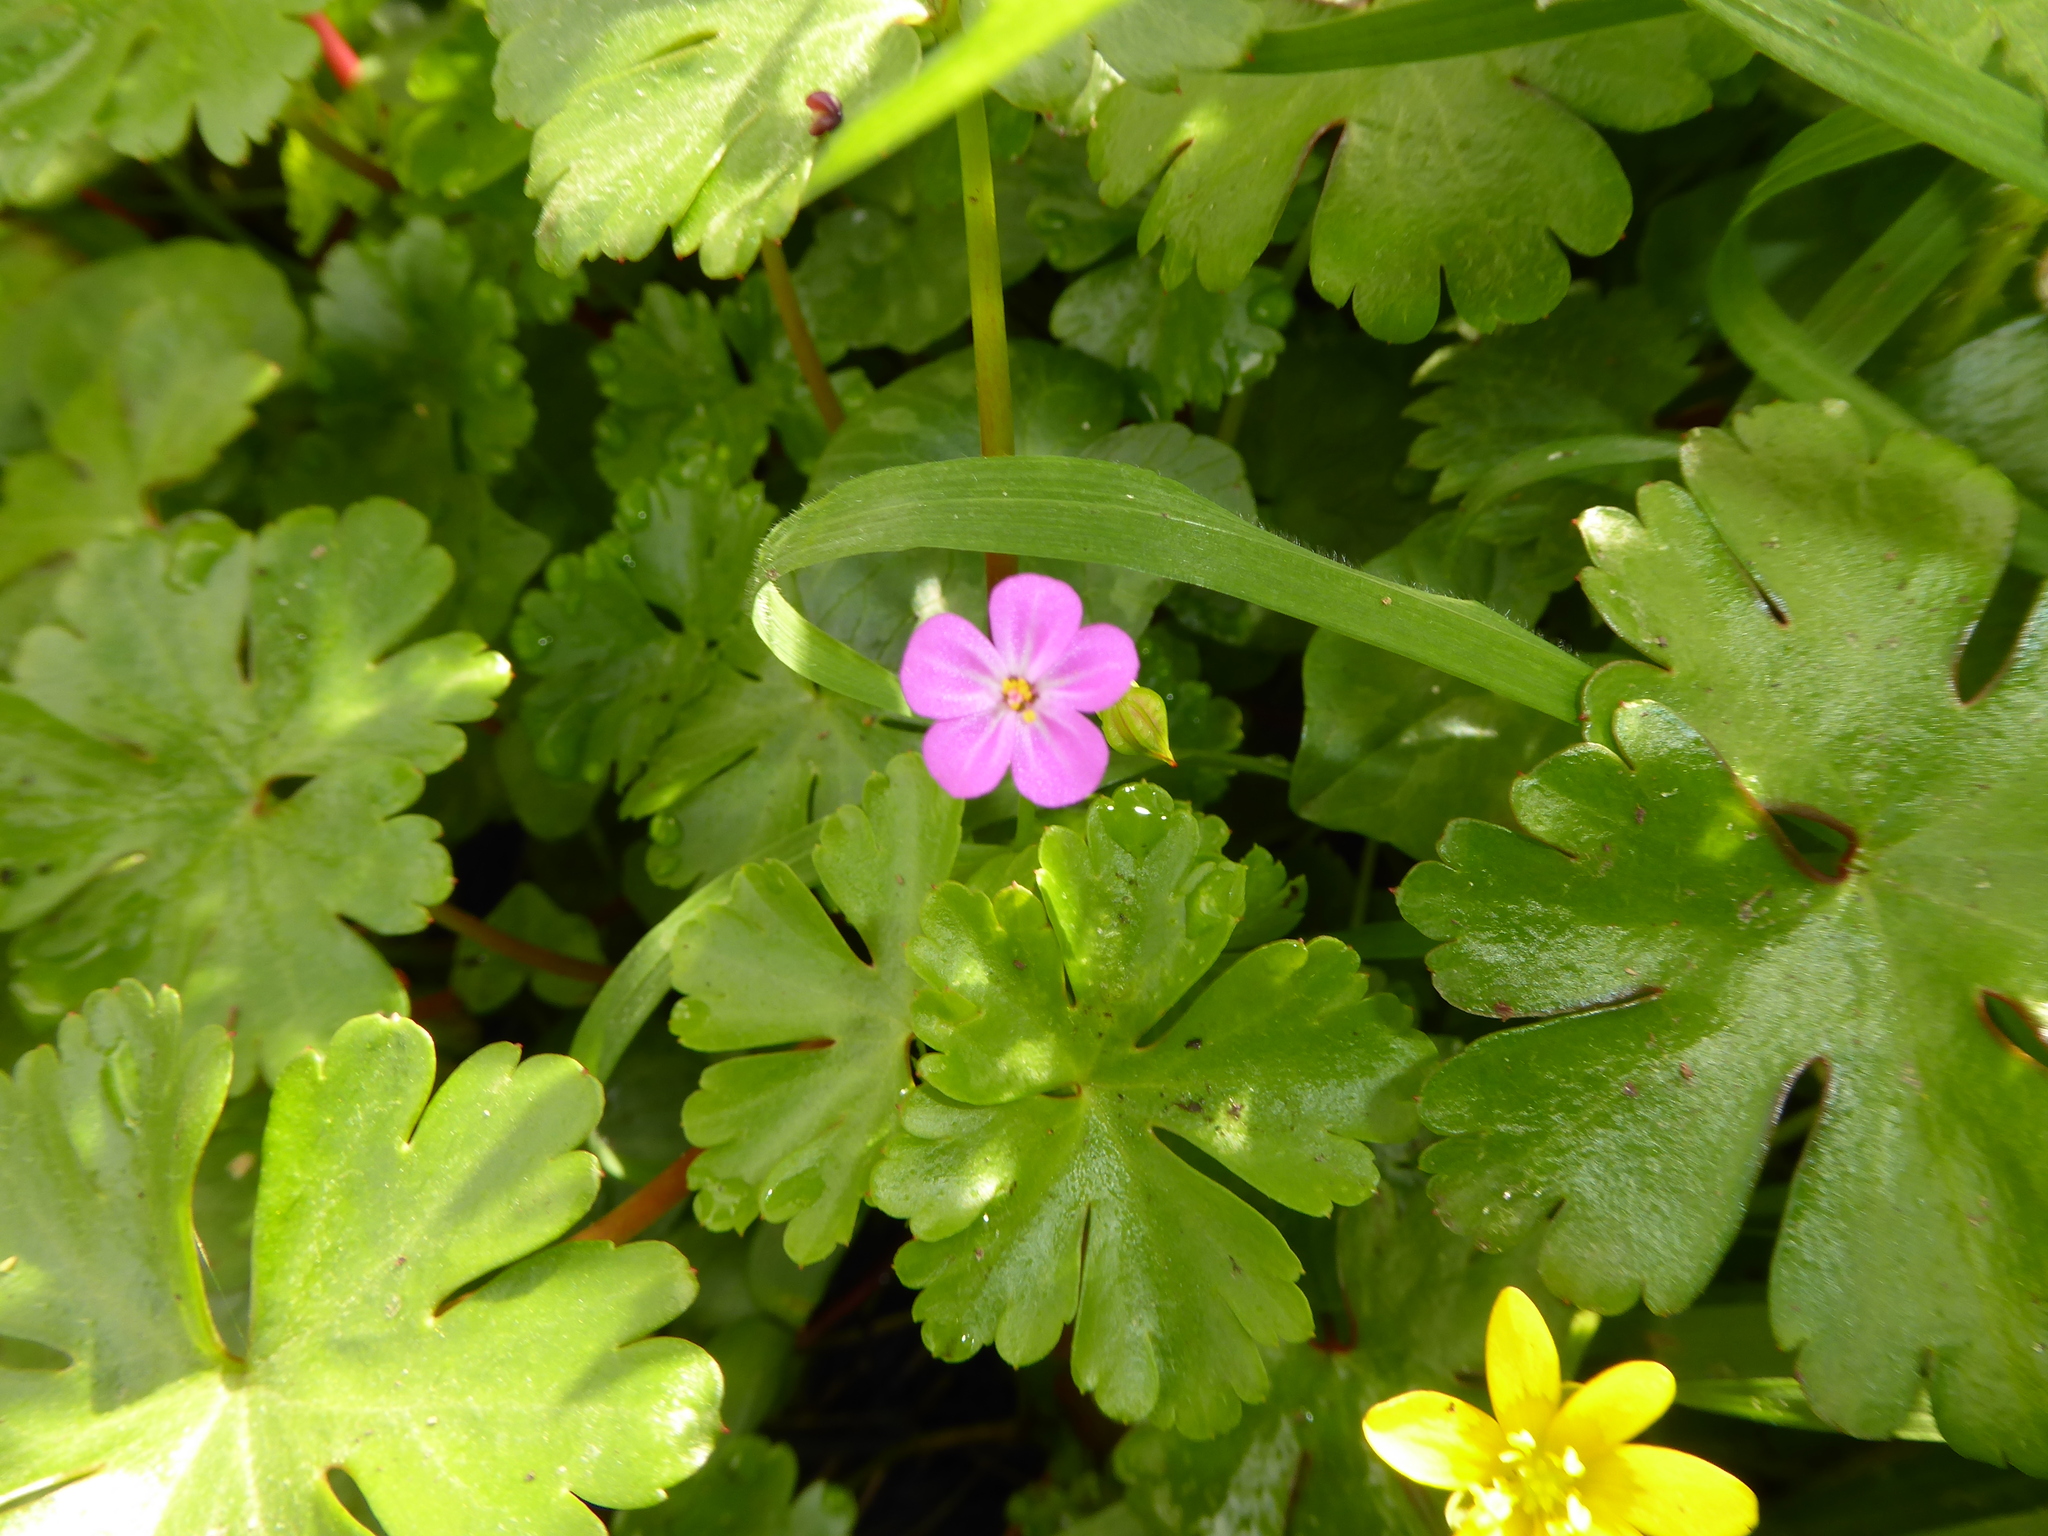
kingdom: Plantae
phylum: Tracheophyta
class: Magnoliopsida
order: Geraniales
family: Geraniaceae
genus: Geranium
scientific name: Geranium lucidum
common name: Shining crane's-bill
